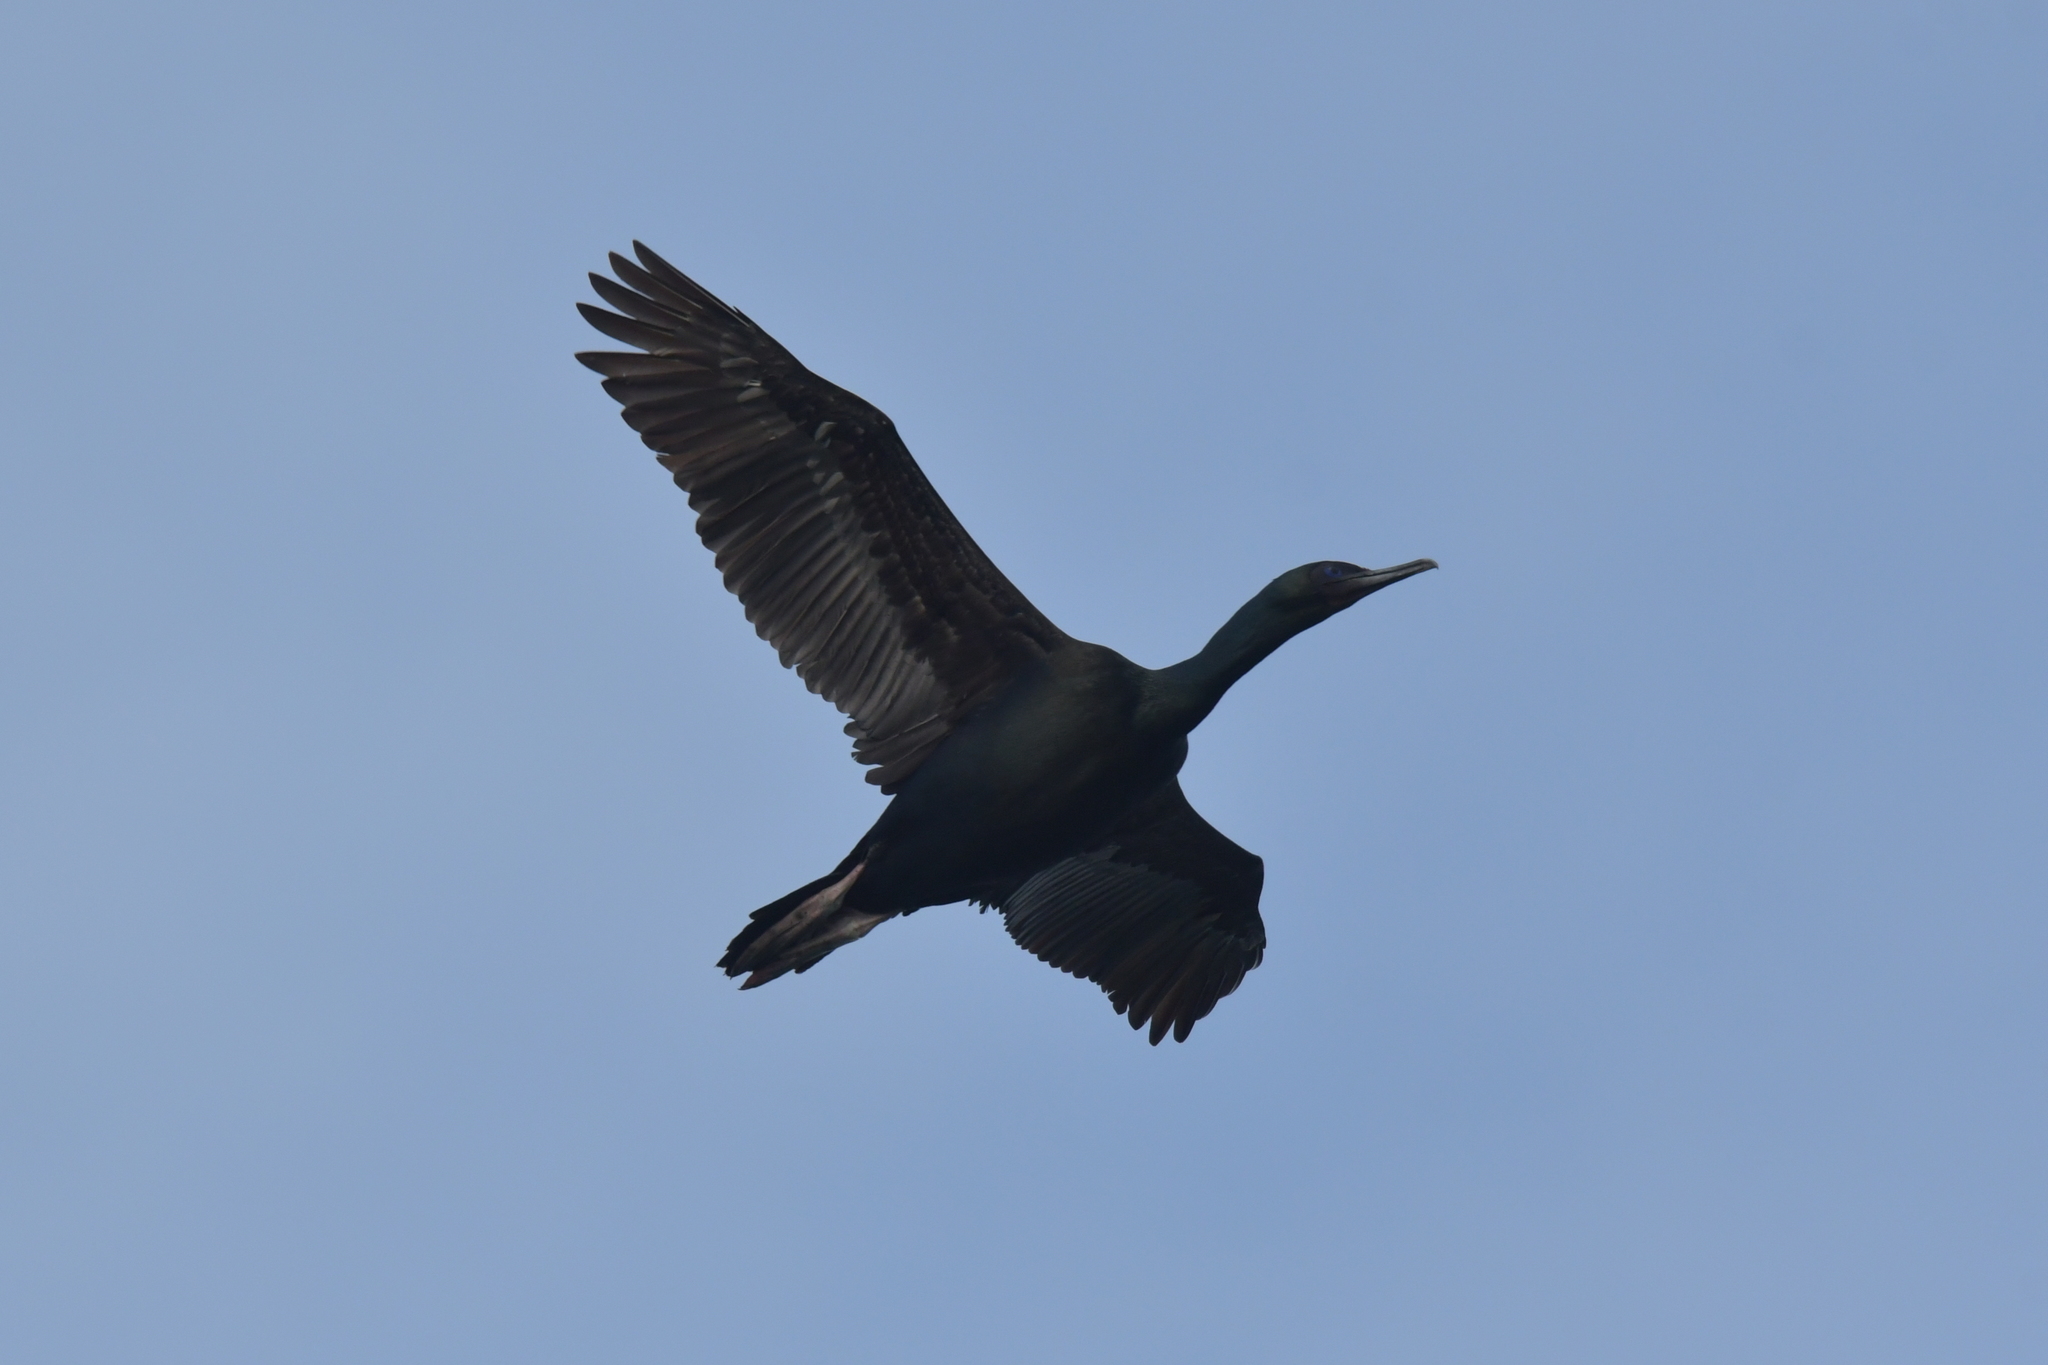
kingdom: Animalia
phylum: Chordata
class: Aves
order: Suliformes
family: Phalacrocoracidae
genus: Leucocarbo
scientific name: Leucocarbo chalconotus
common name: Stewart shag
